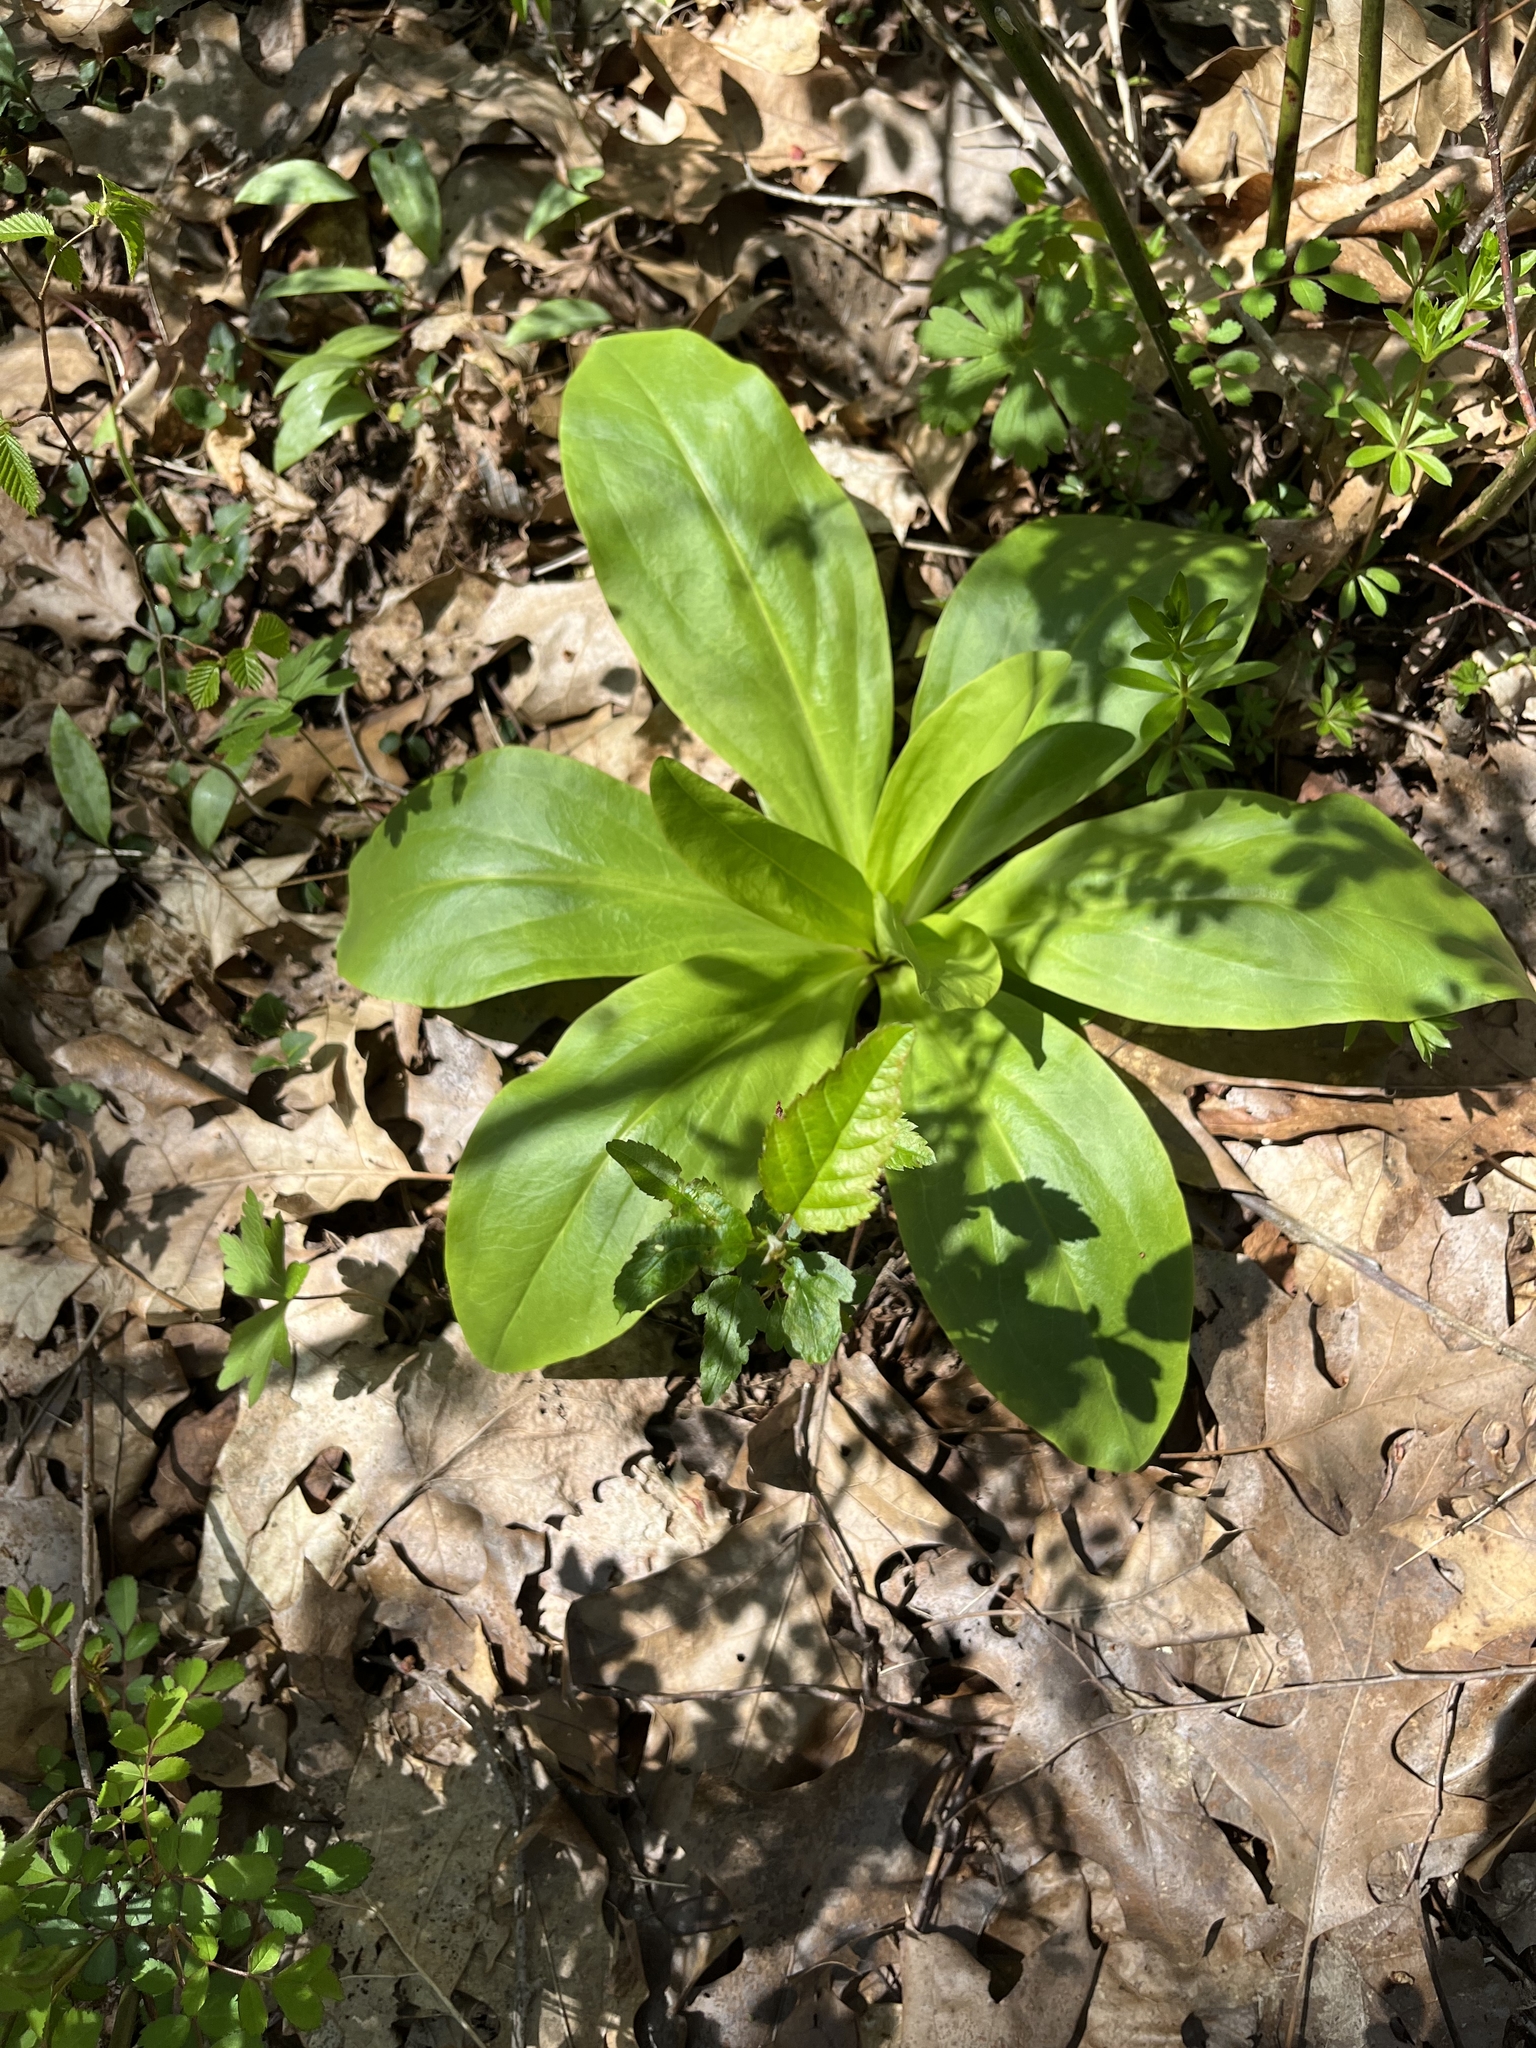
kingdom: Plantae
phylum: Tracheophyta
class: Magnoliopsida
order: Gentianales
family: Gentianaceae
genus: Frasera
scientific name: Frasera caroliniensis
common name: American columbo
